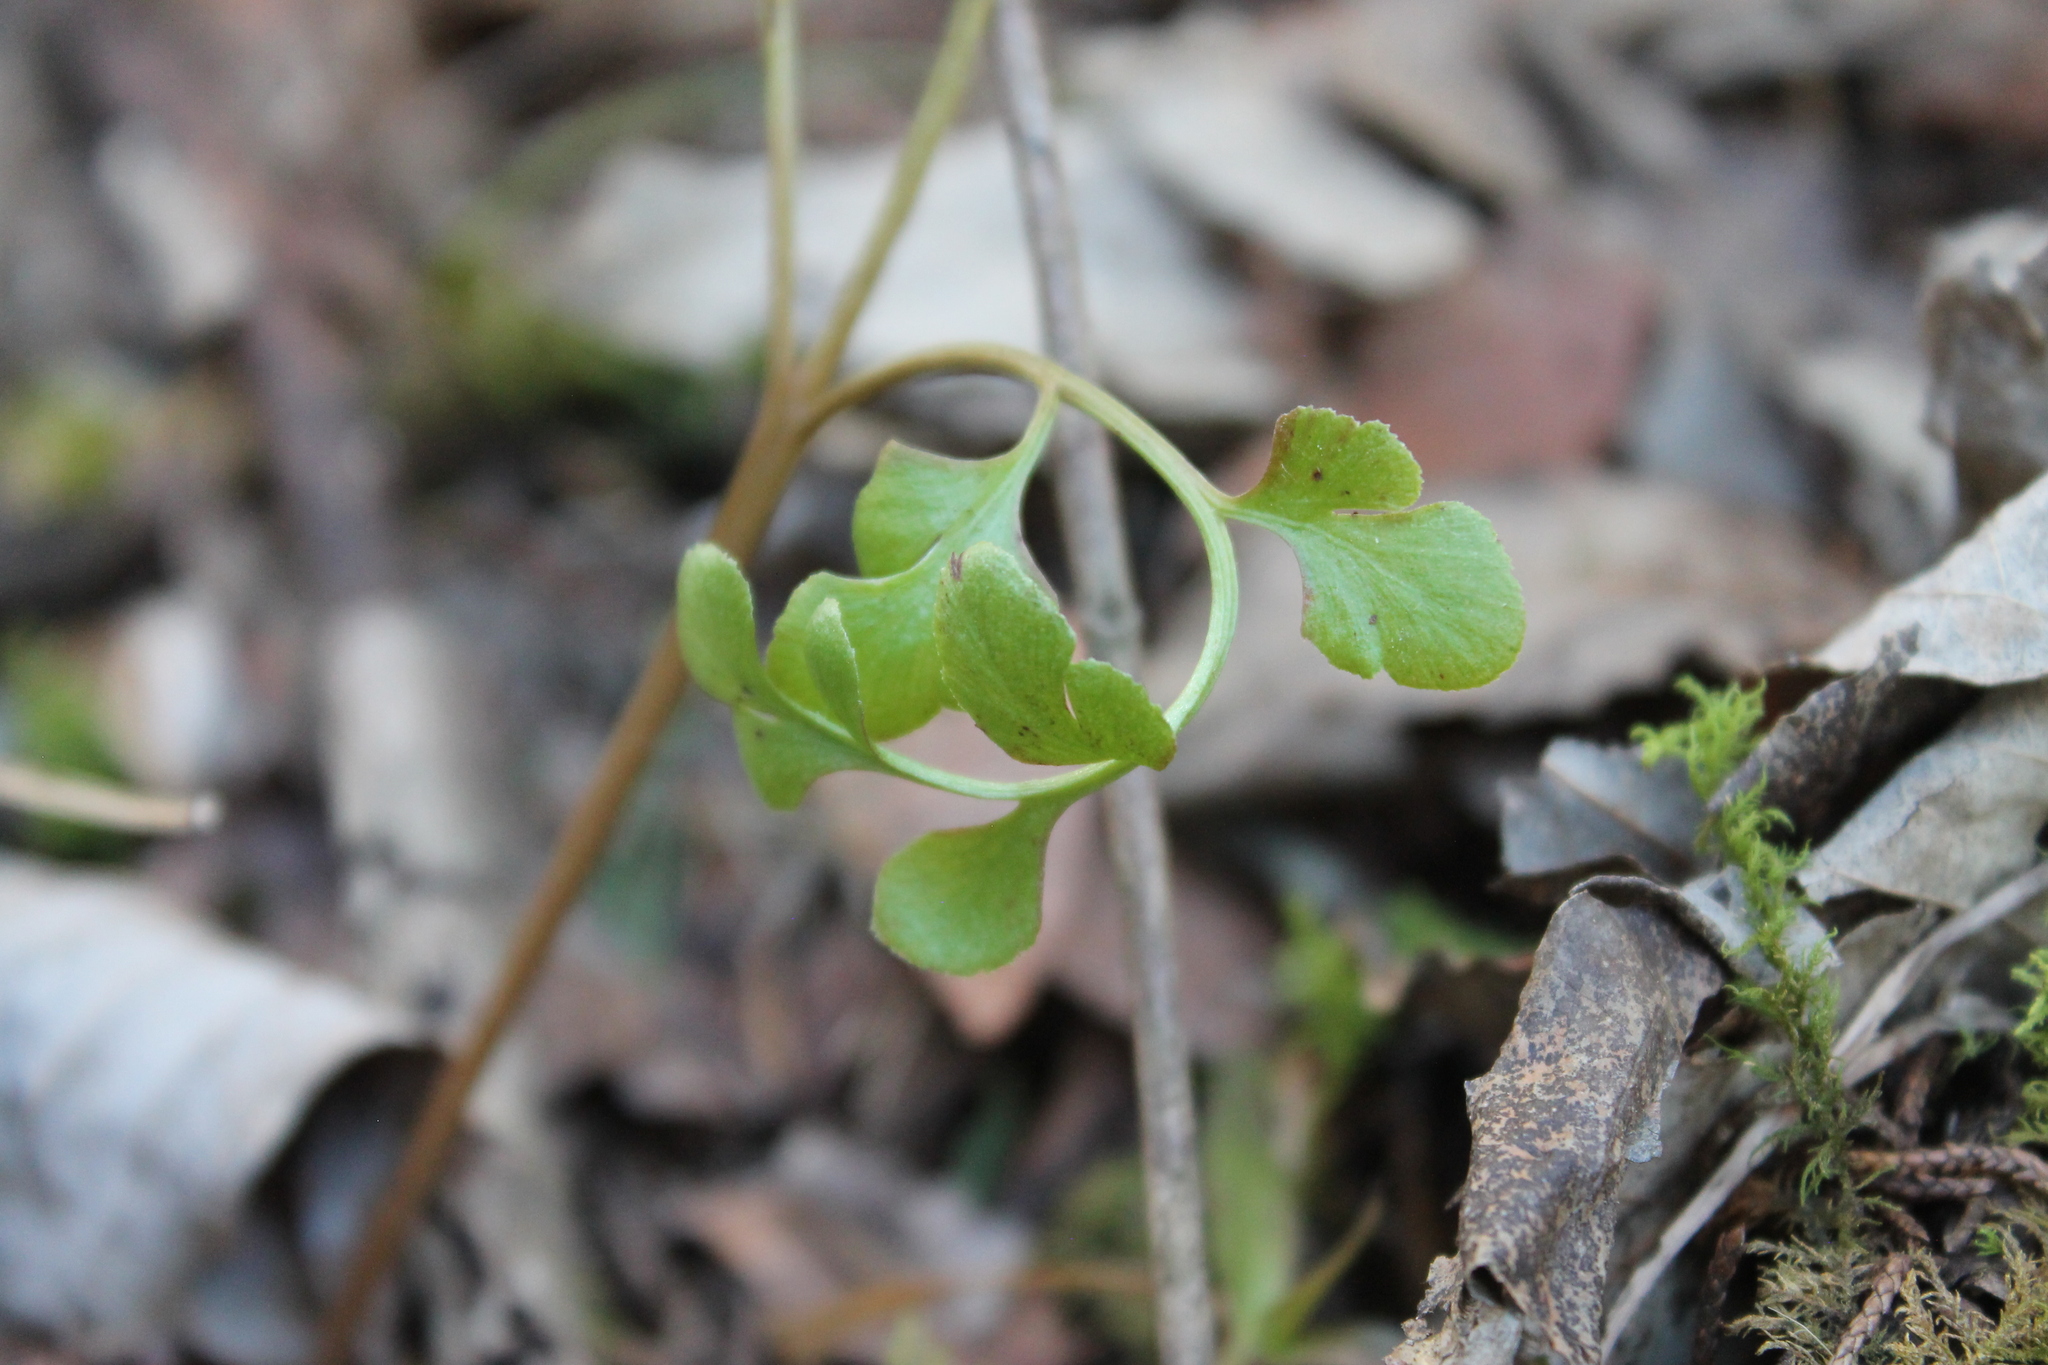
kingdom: Plantae
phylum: Tracheophyta
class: Polypodiopsida
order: Ophioglossales
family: Ophioglossaceae
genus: Sceptridium
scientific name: Sceptridium jenmanii
